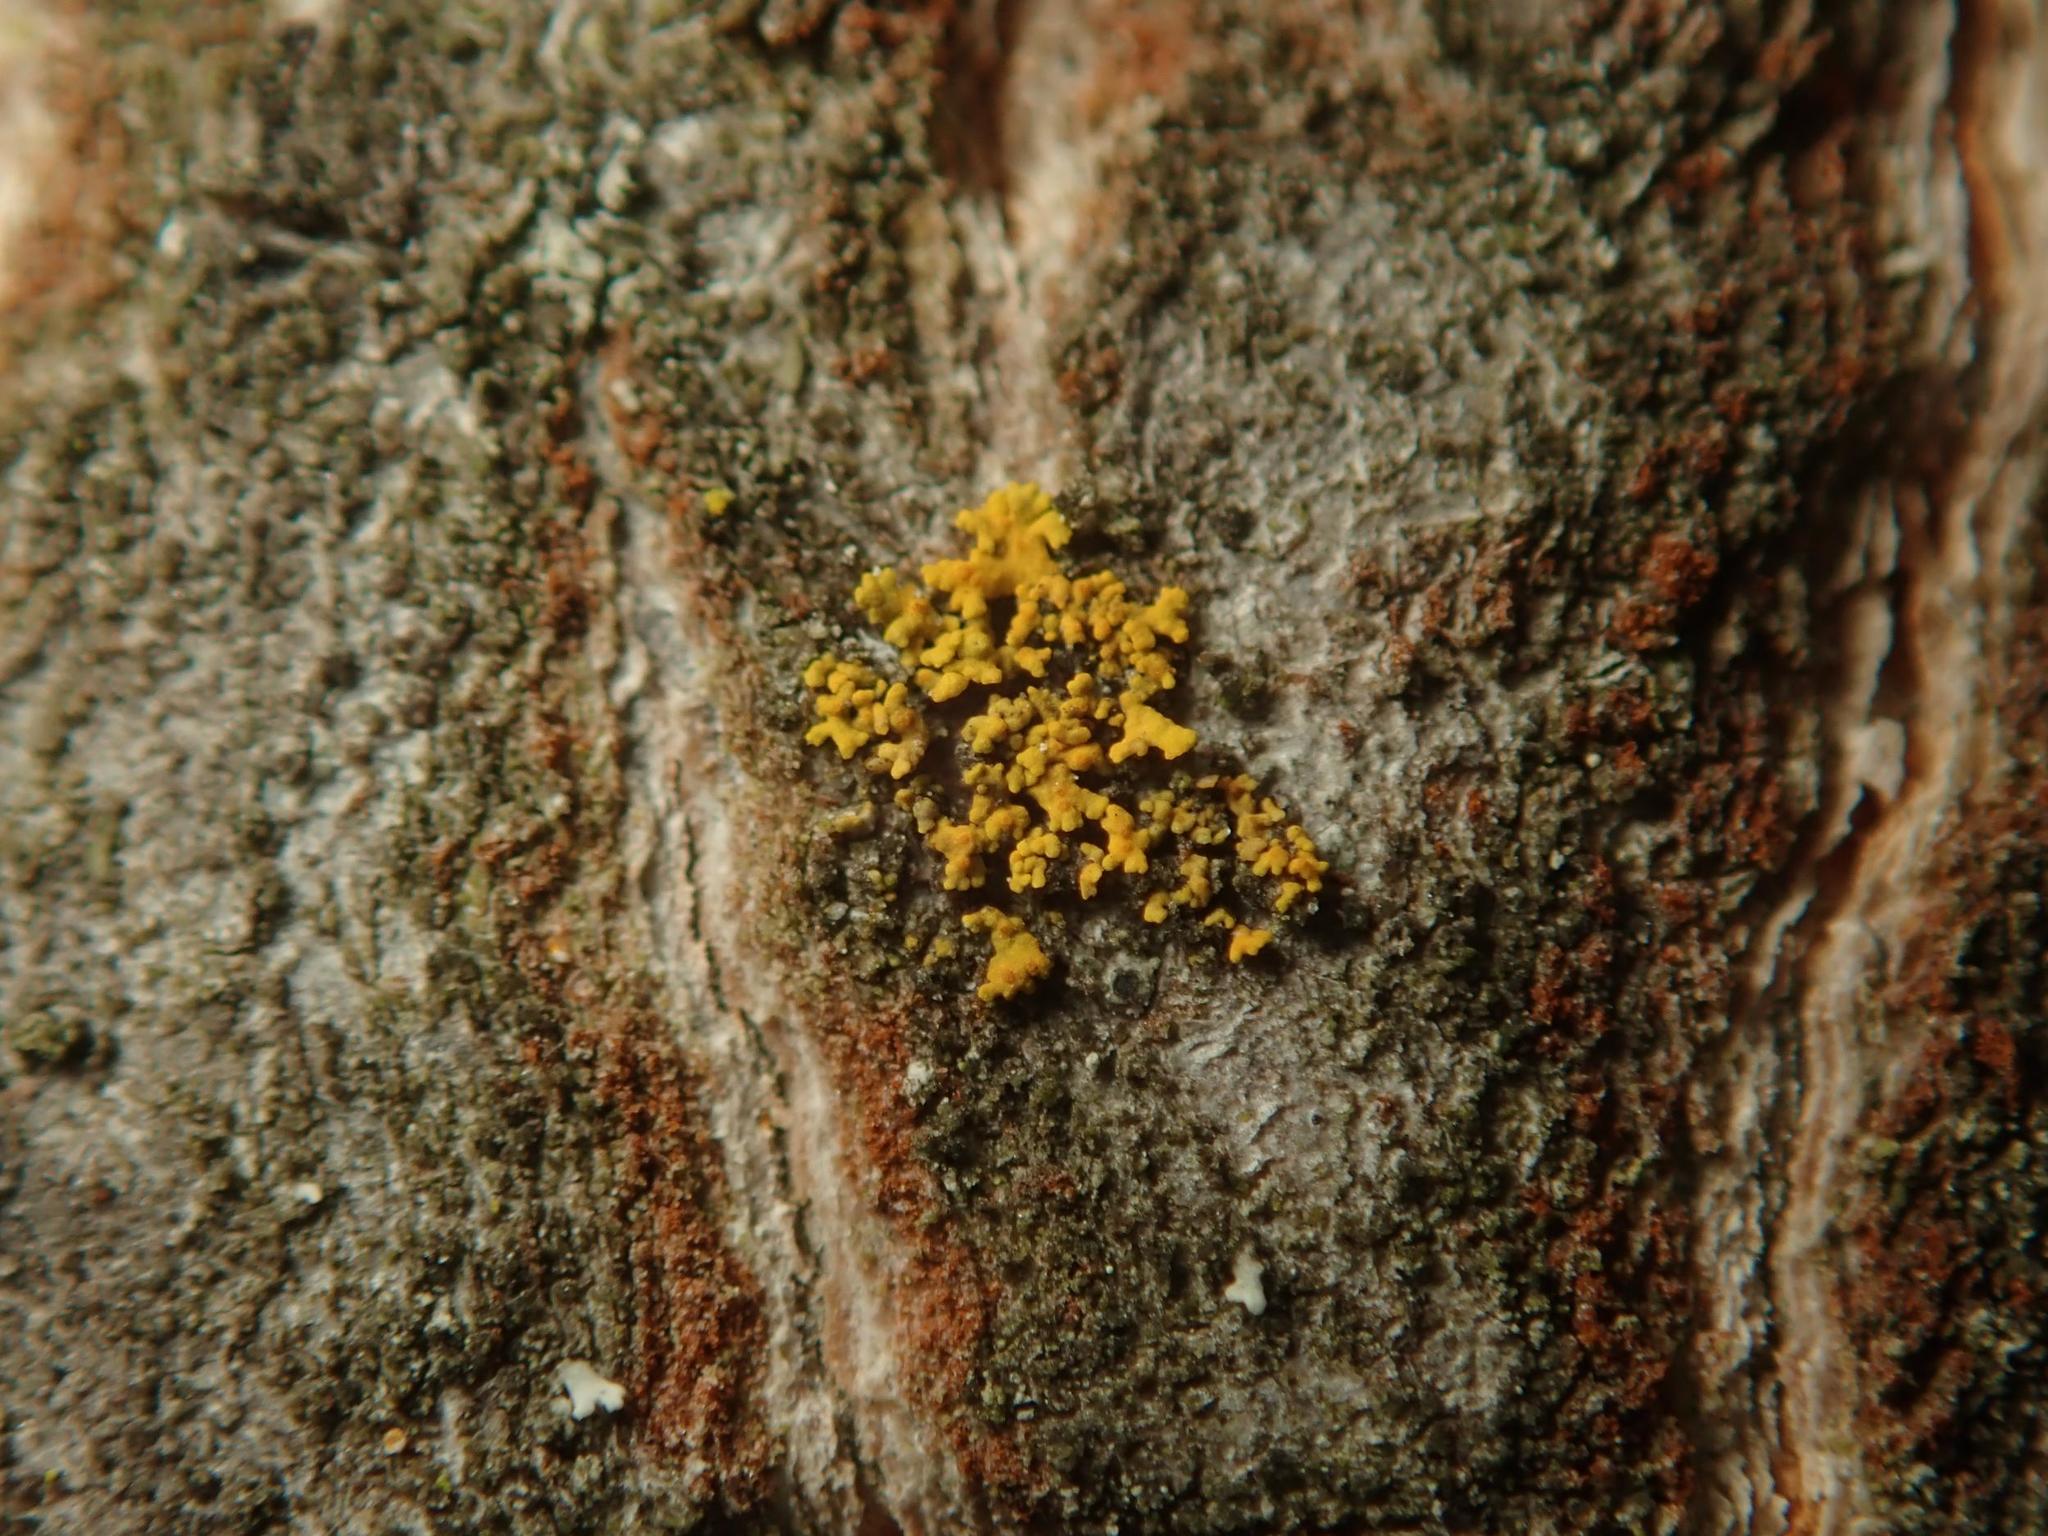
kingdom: Fungi
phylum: Ascomycota
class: Lecanoromycetes
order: Teloschistales
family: Teloschistaceae
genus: Polycauliona
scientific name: Polycauliona polycarpa
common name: Pin-cushion sunburst lichen
